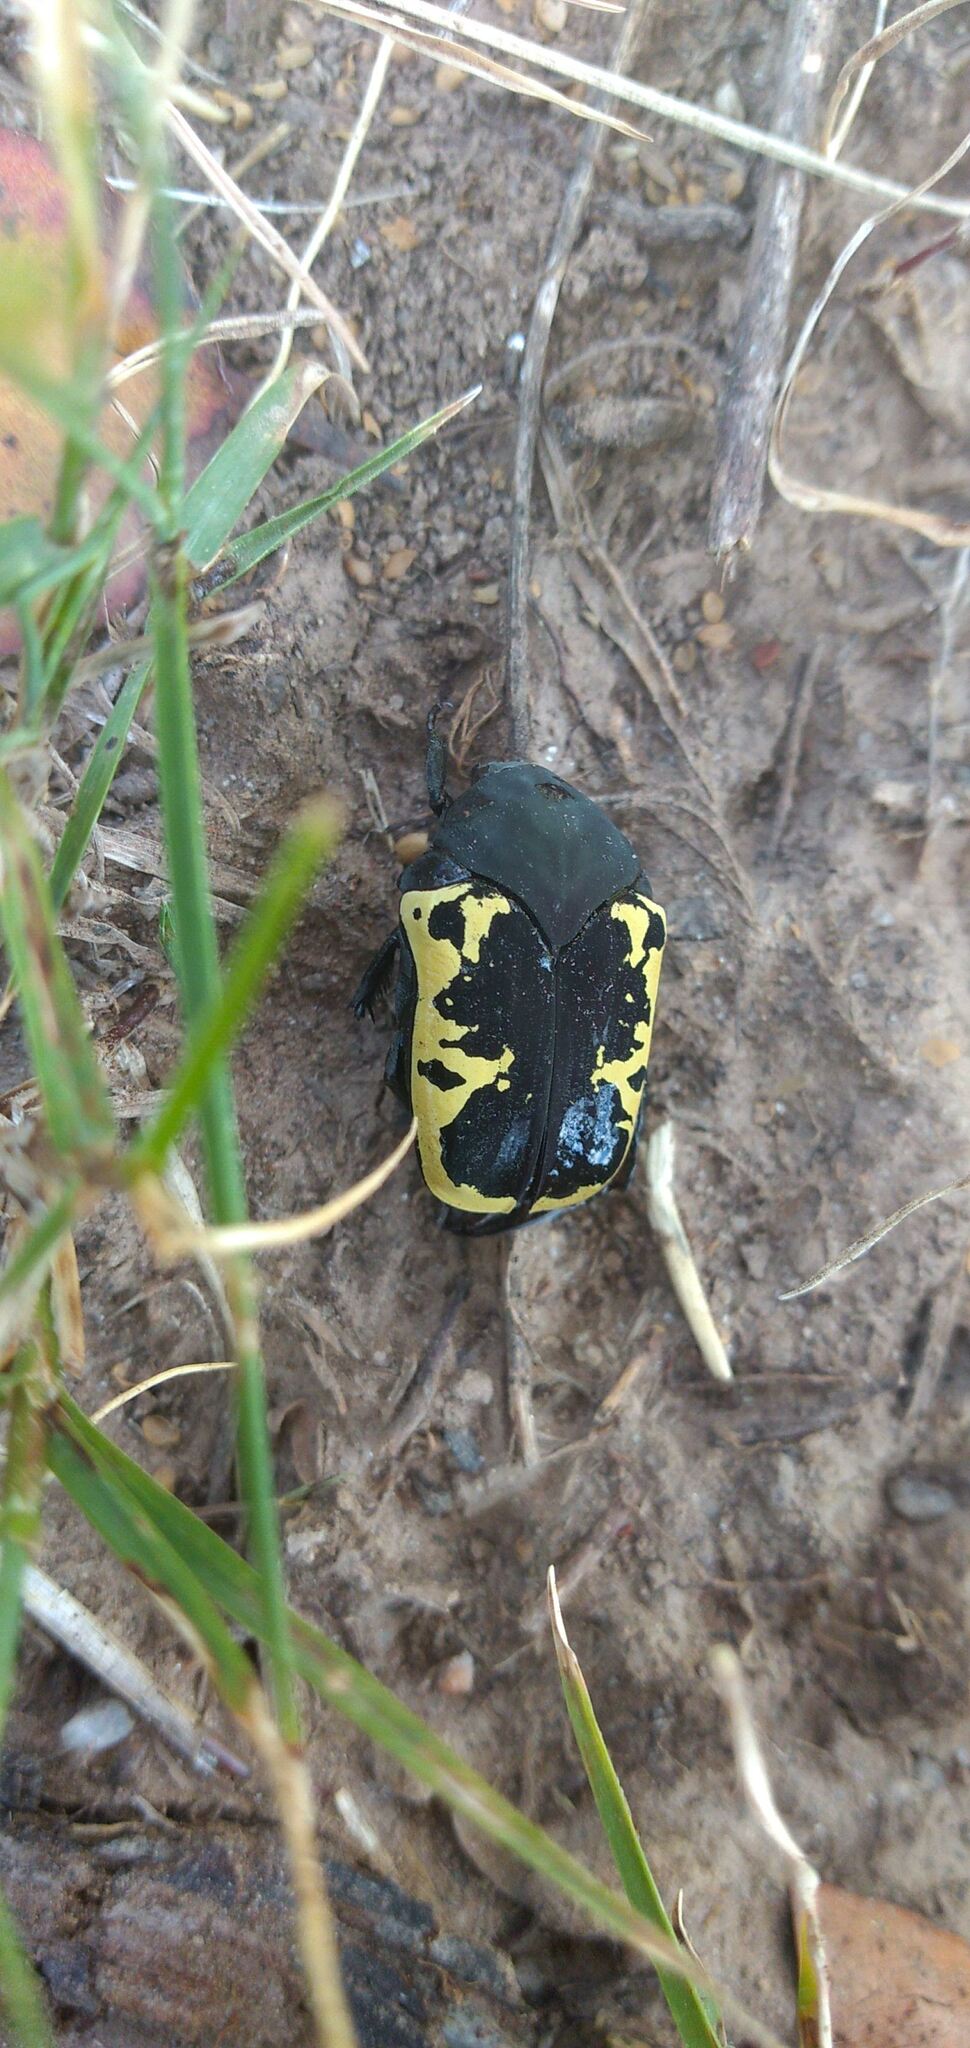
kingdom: Animalia
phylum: Arthropoda
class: Insecta
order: Coleoptera
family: Scarabaeidae
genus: Gymnetis
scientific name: Gymnetis pudibunda
